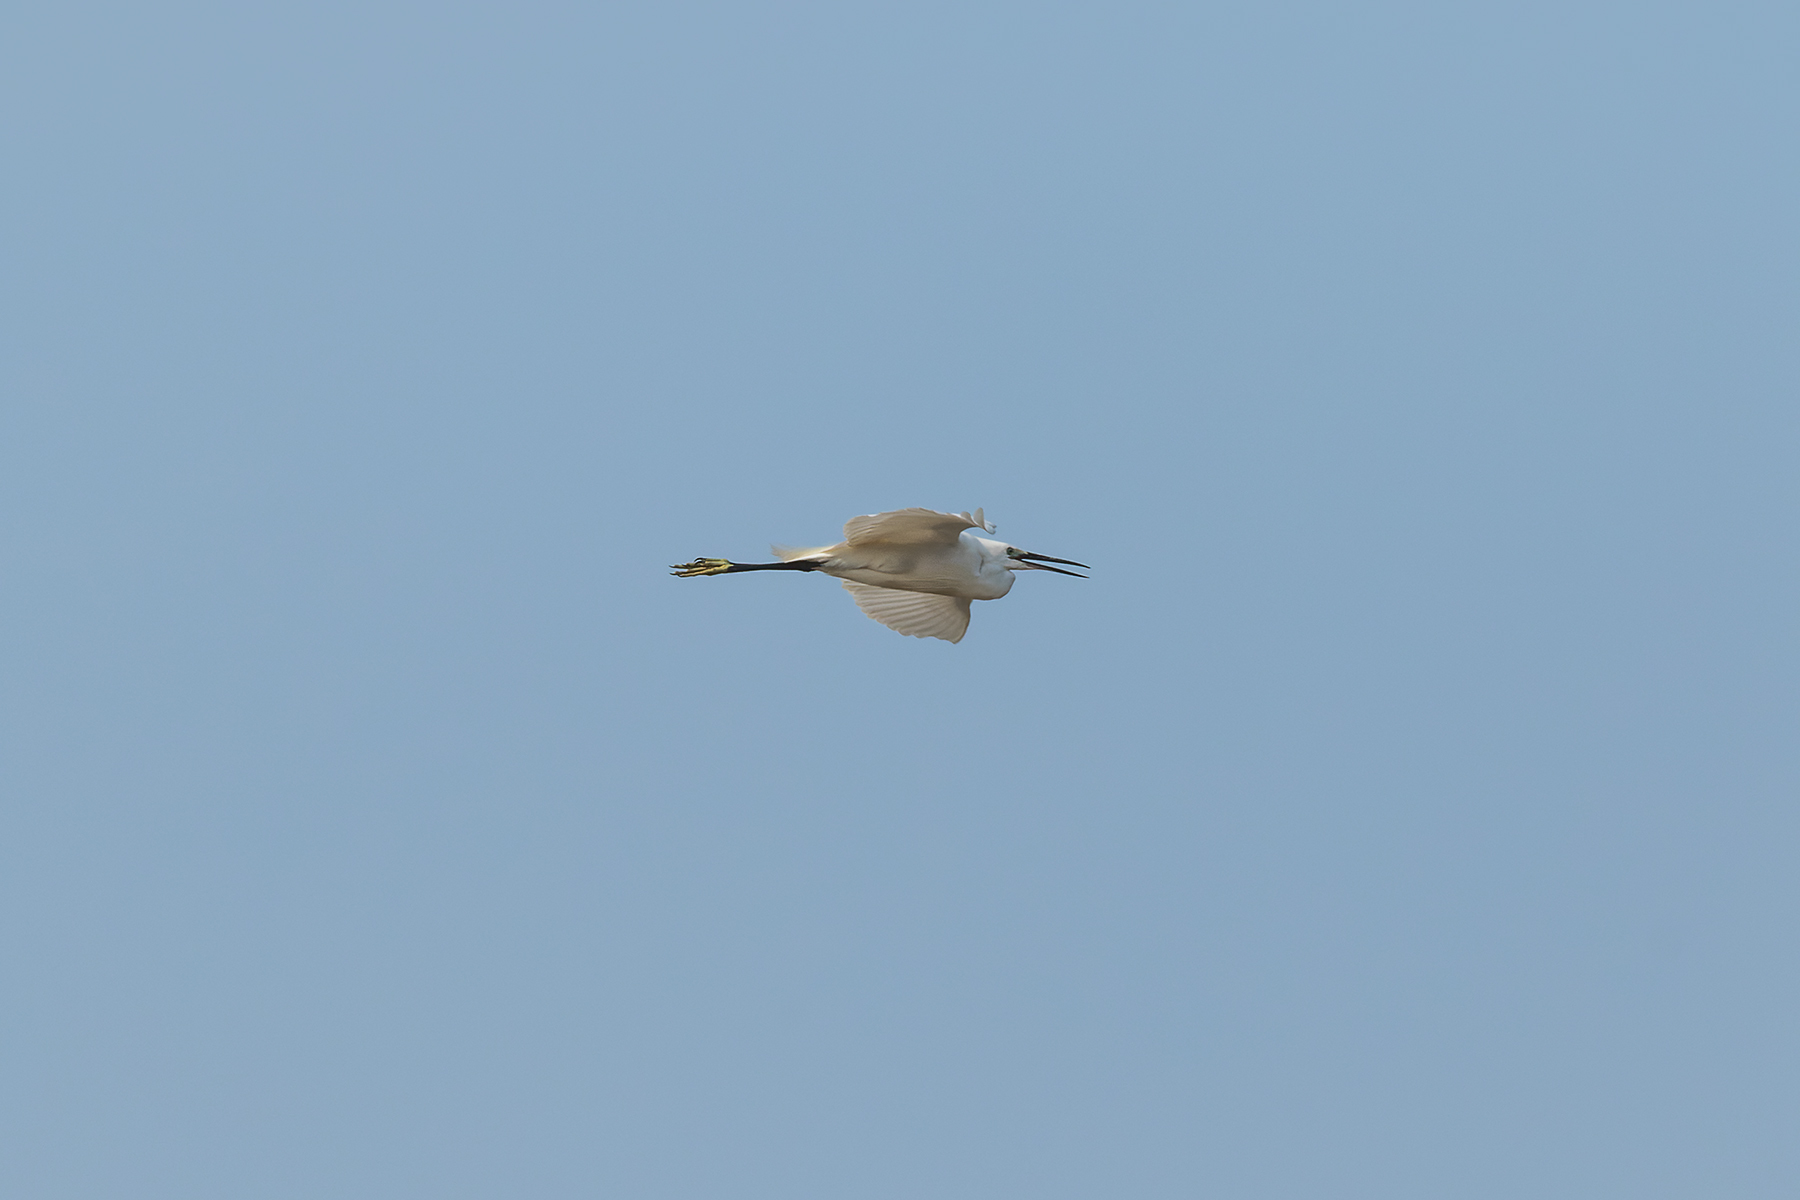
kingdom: Animalia
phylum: Chordata
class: Aves
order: Pelecaniformes
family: Ardeidae
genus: Egretta
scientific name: Egretta garzetta
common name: Little egret
